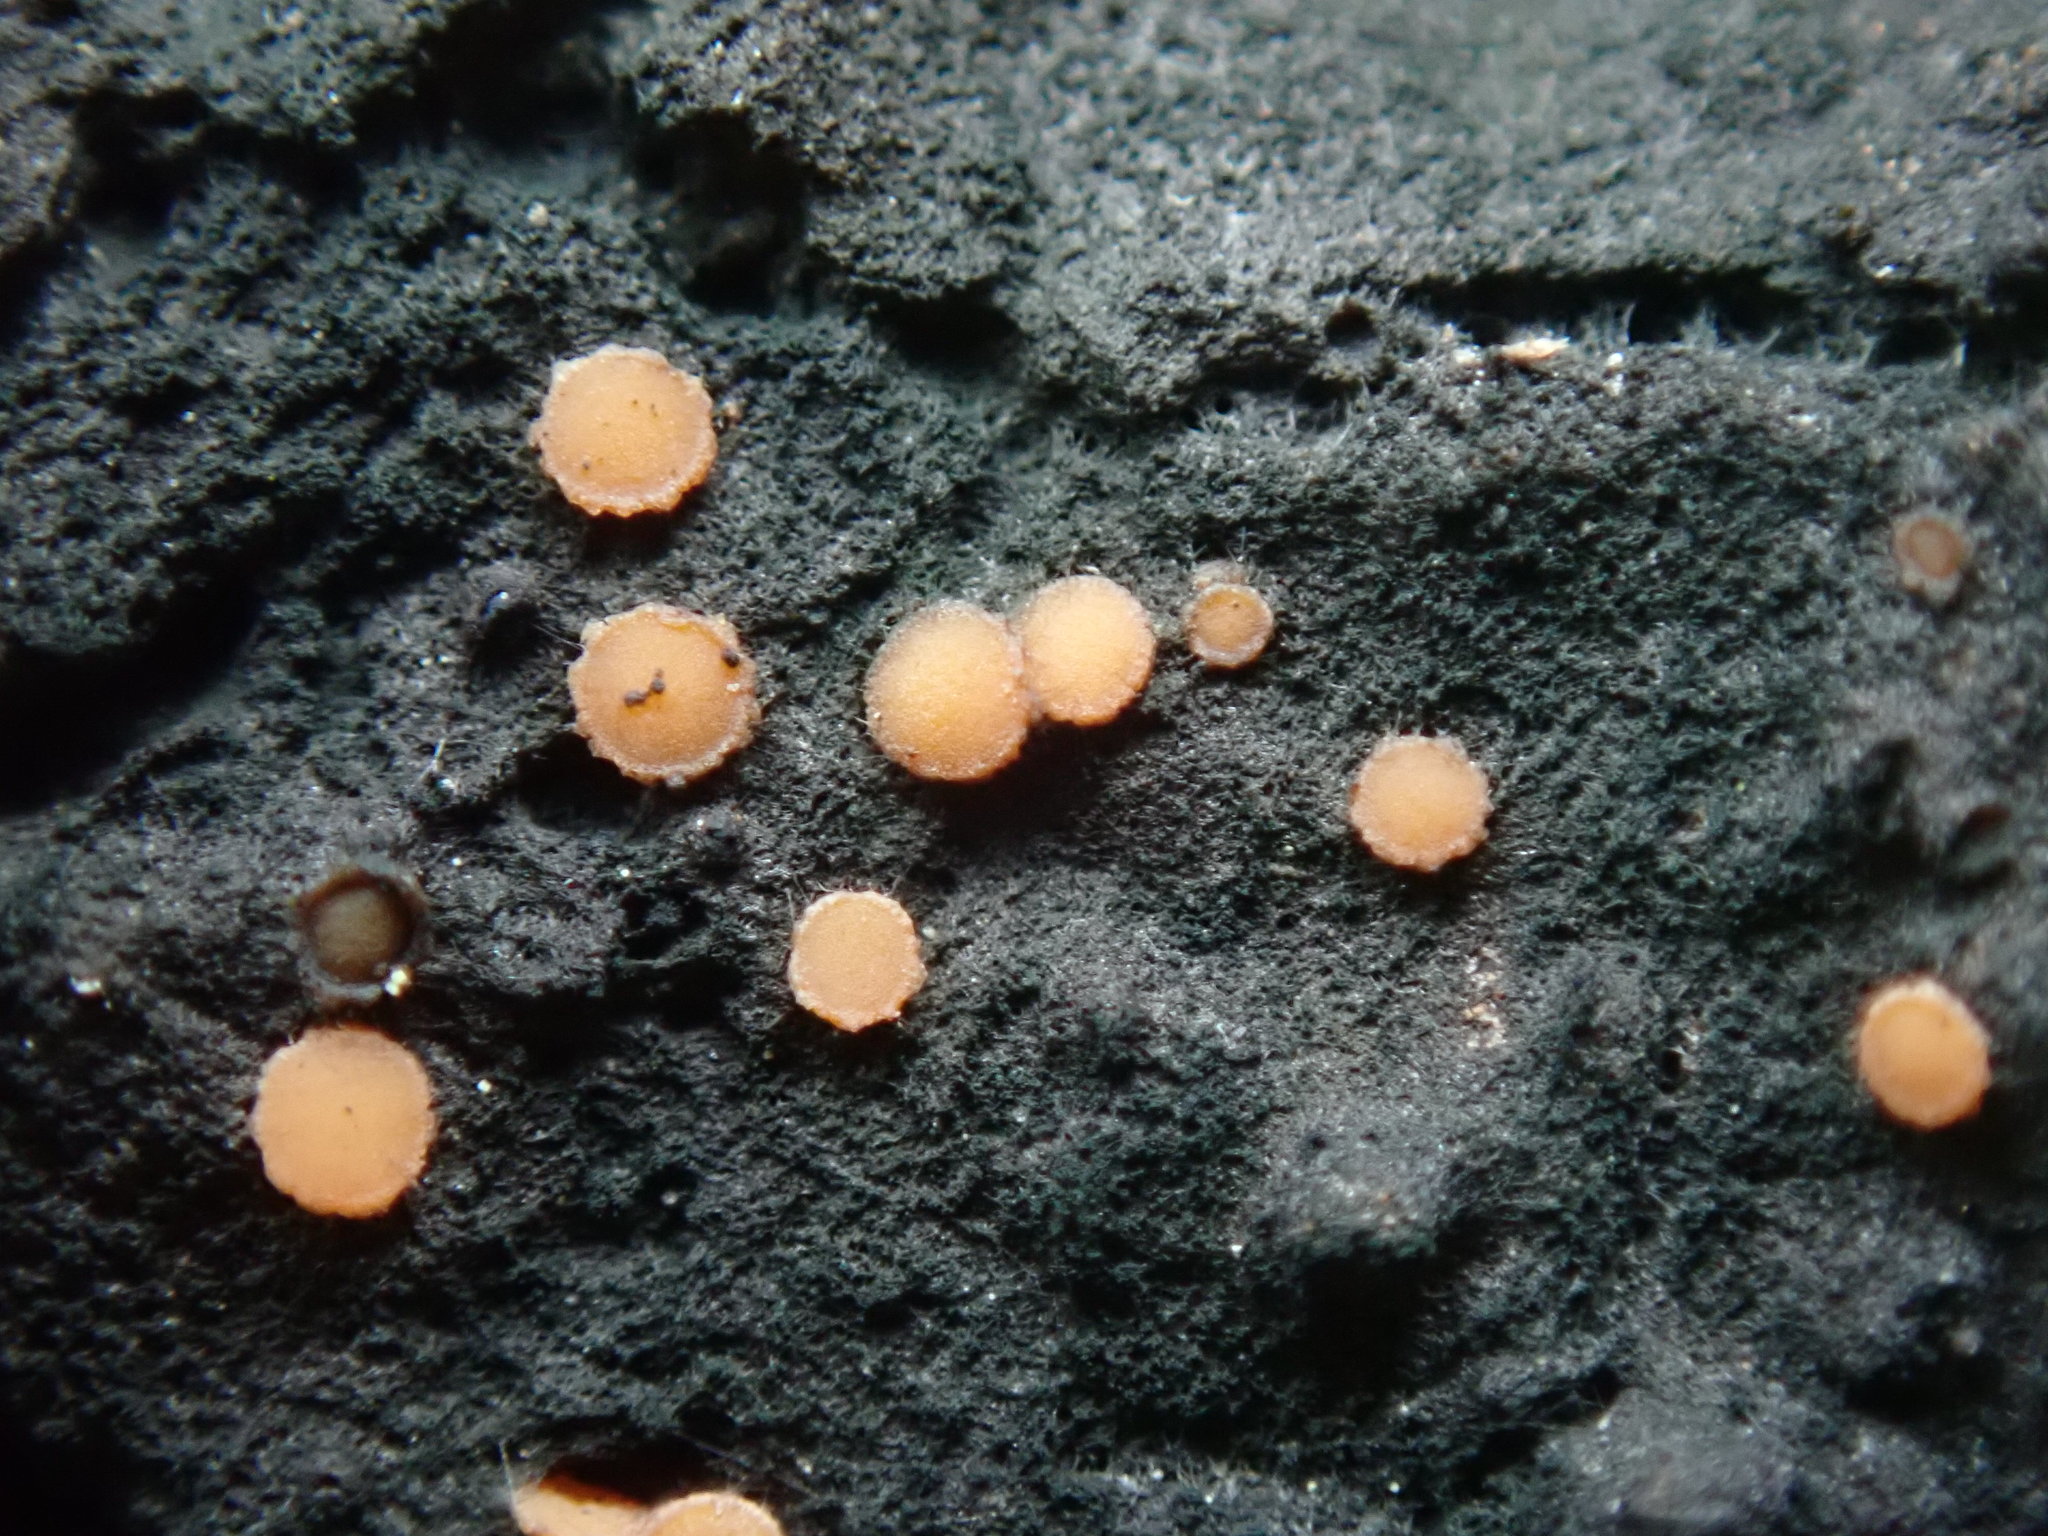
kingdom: Fungi
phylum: Ascomycota
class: Sareomycetes
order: Sareales
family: Sareaceae
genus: Sarea
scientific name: Sarea resinae
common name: Sarea lichen
